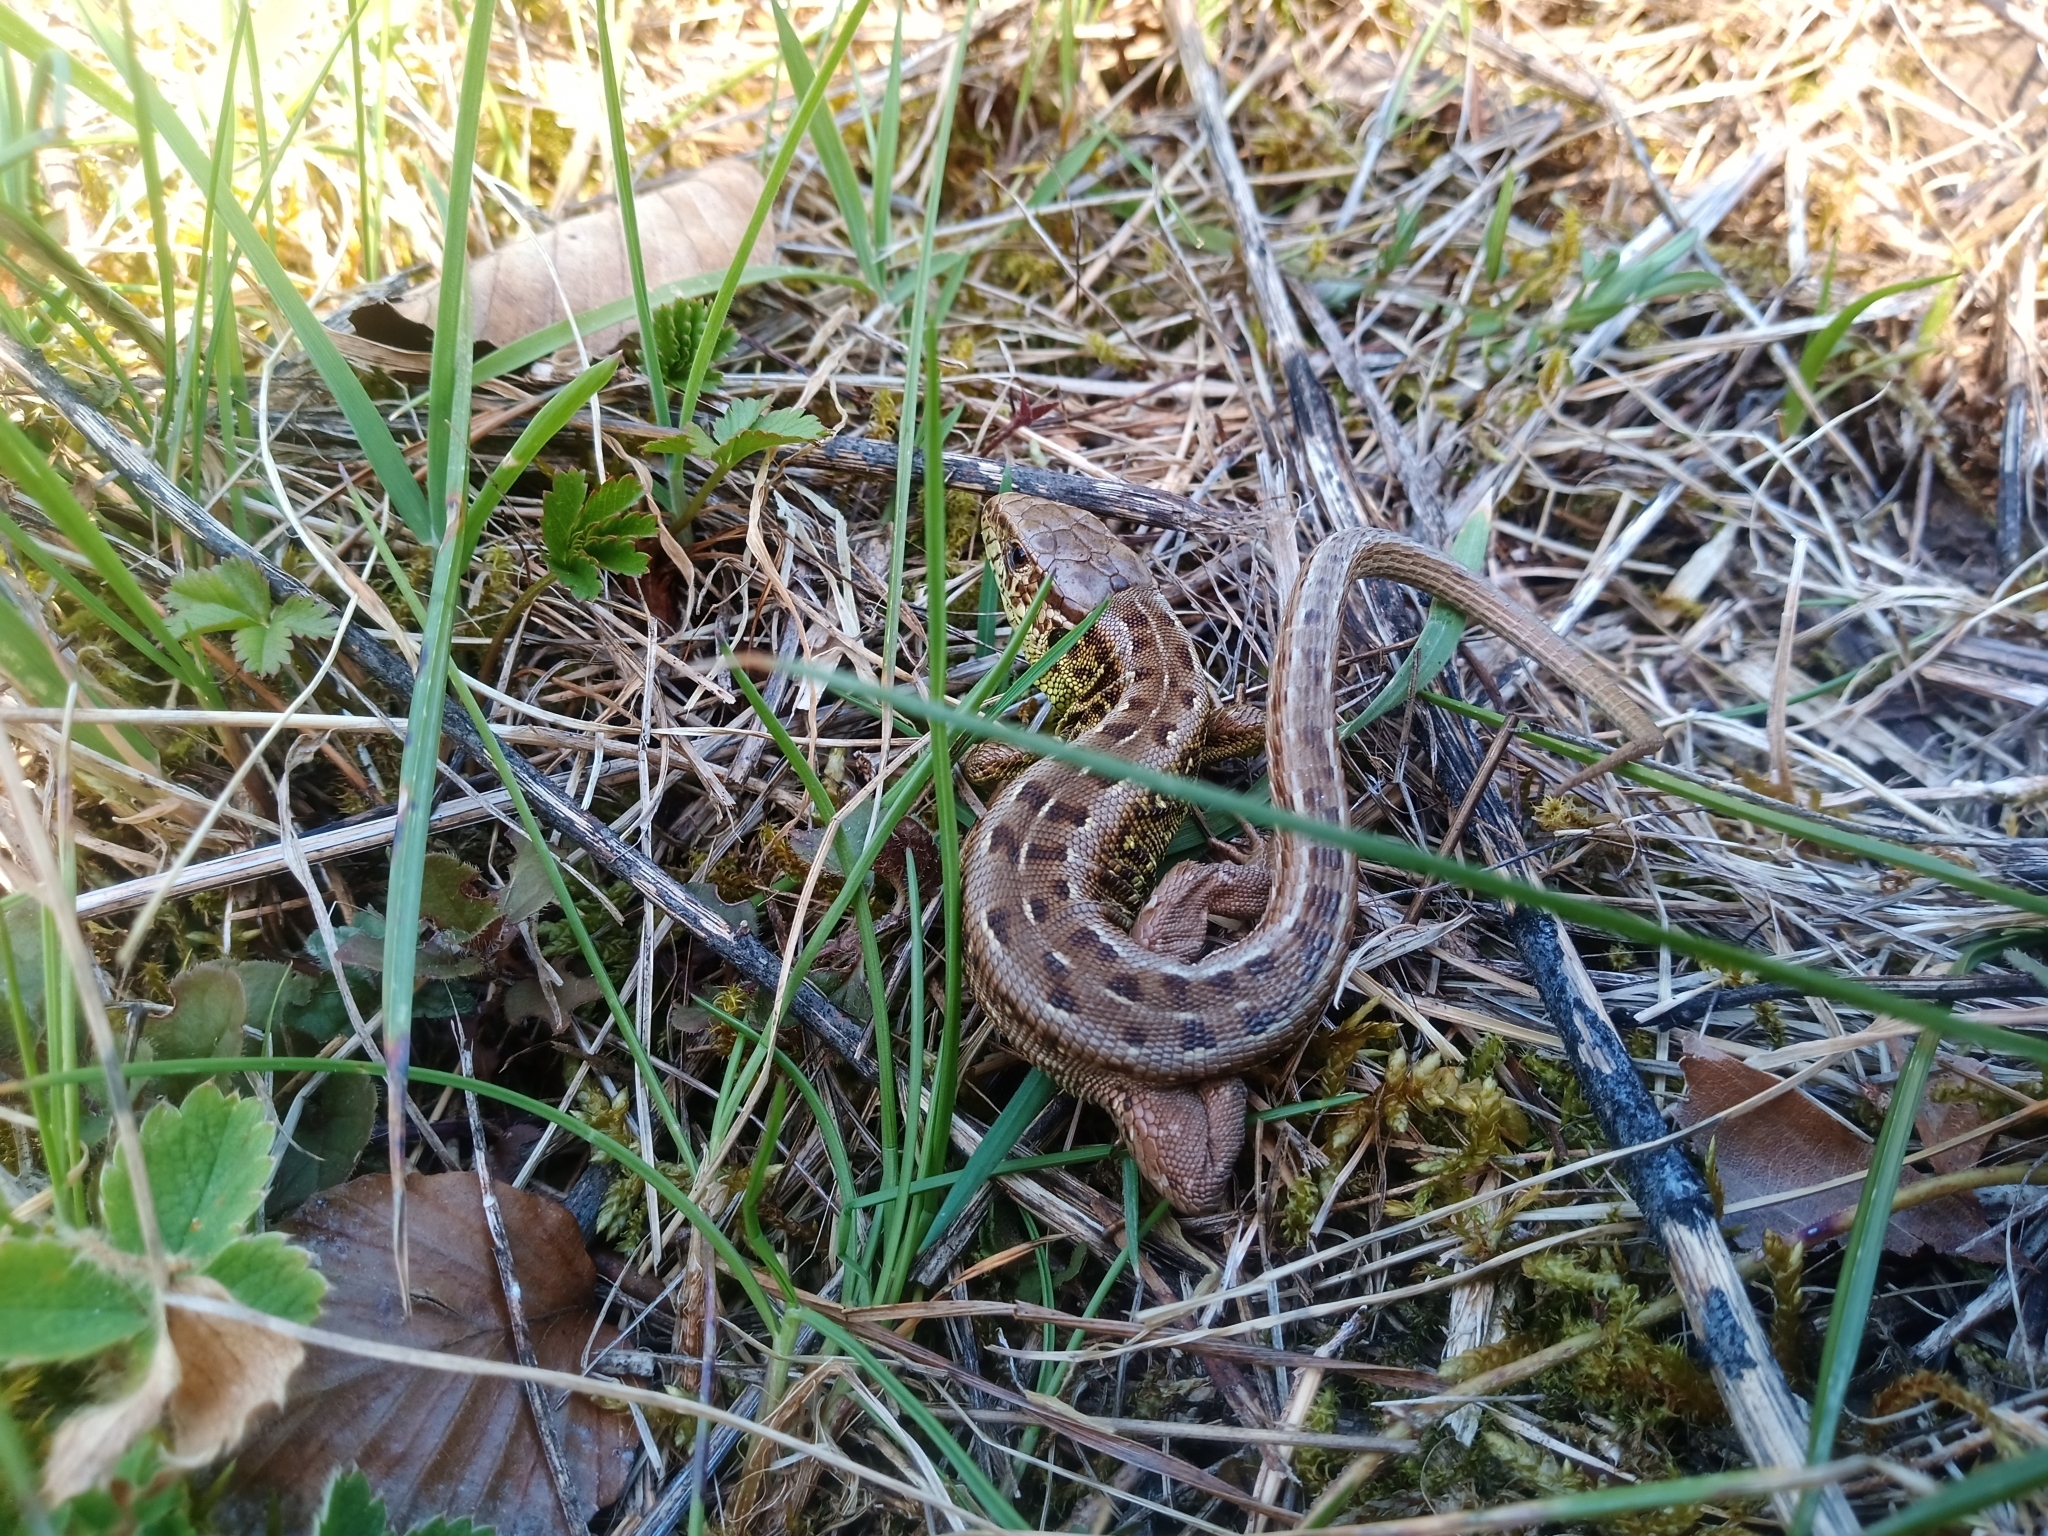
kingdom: Animalia
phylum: Chordata
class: Squamata
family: Lacertidae
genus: Lacerta
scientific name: Lacerta agilis
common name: Sand lizard
